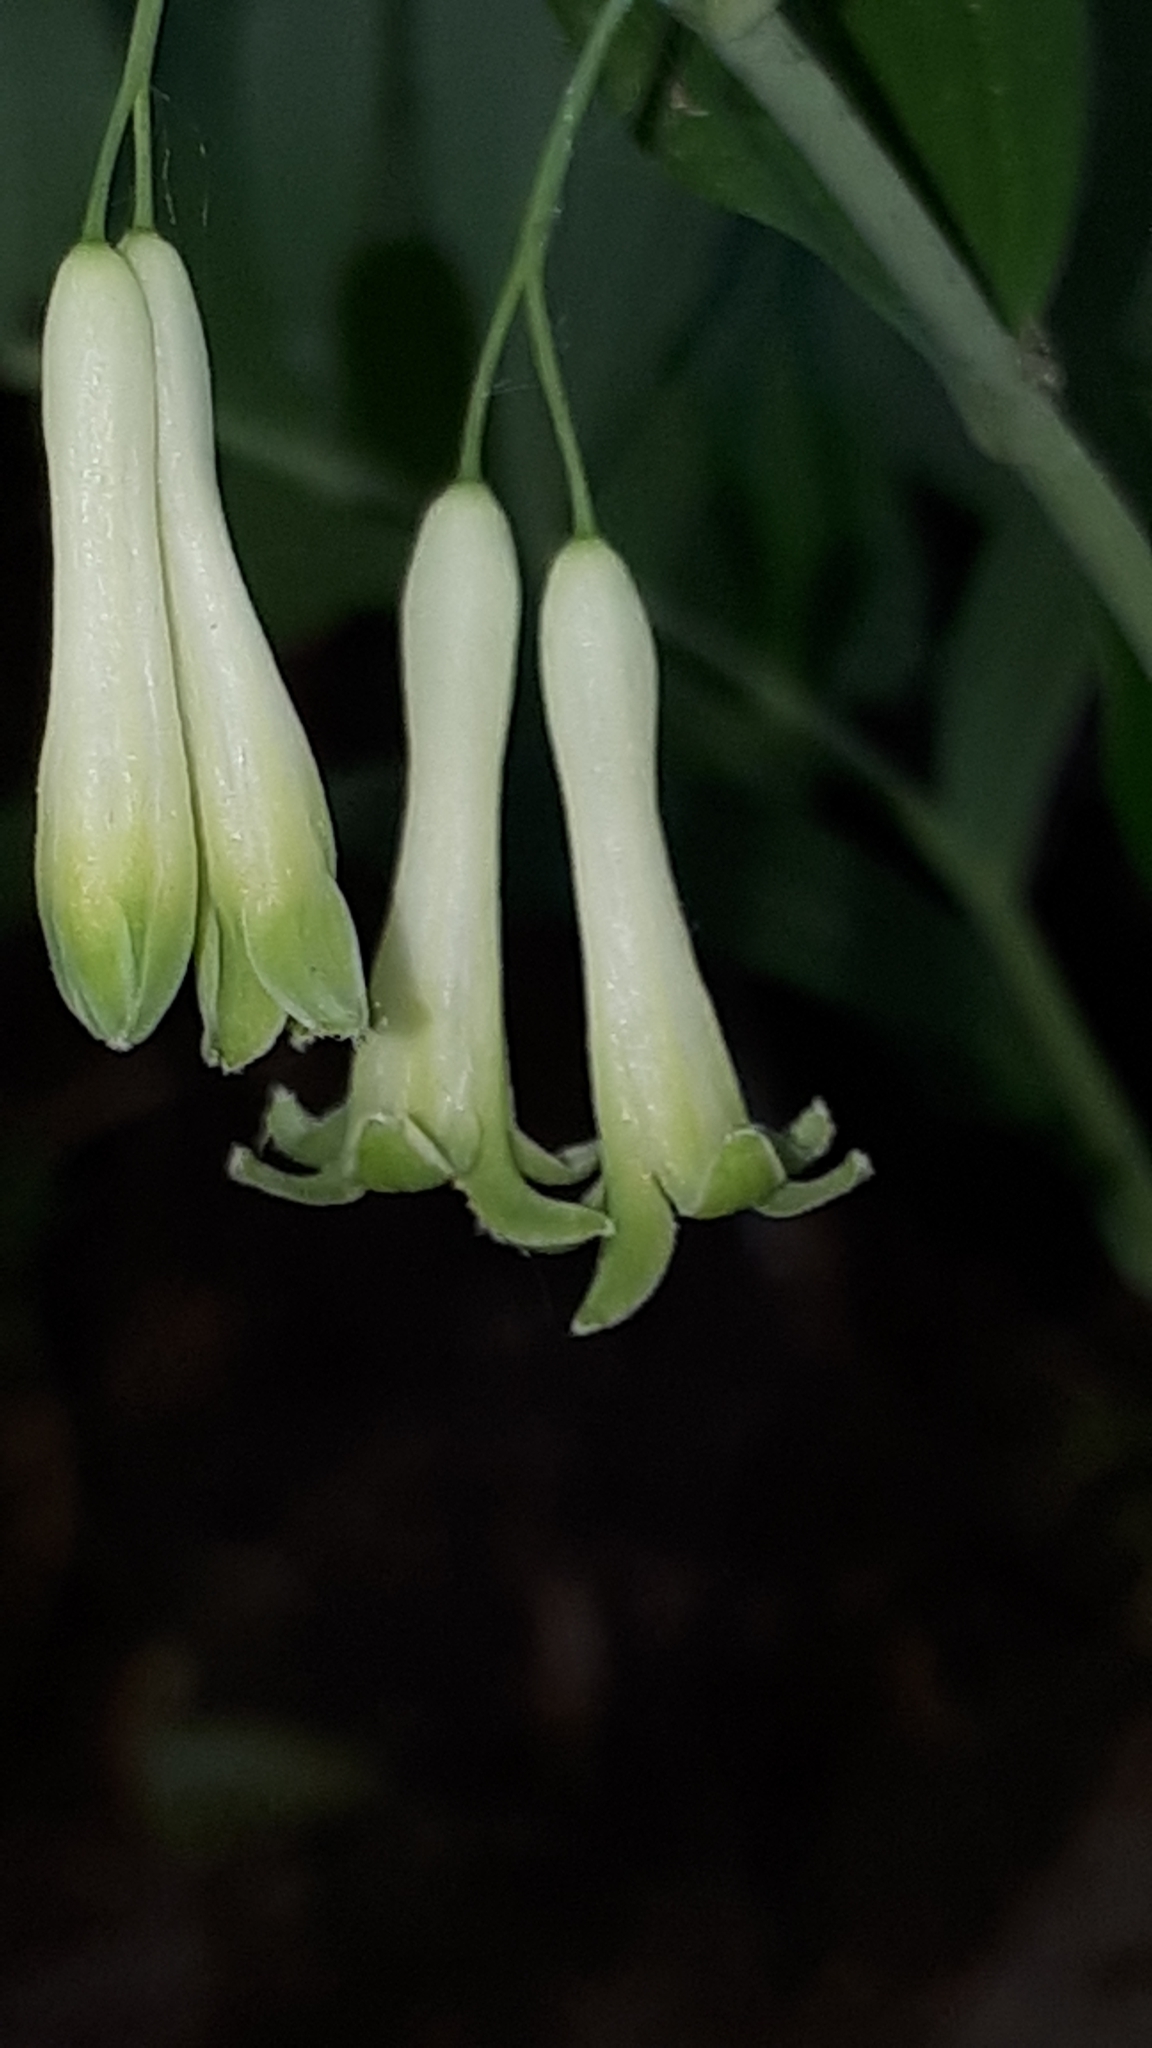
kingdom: Plantae
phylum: Tracheophyta
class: Liliopsida
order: Asparagales
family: Asparagaceae
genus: Polygonatum
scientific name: Polygonatum multiflorum
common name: Solomon's-seal
